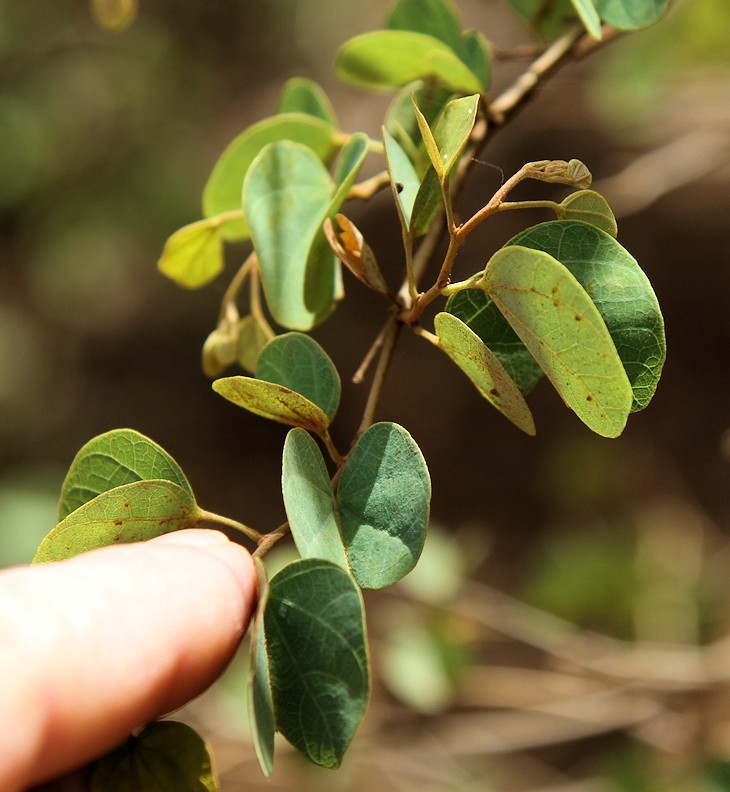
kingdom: Plantae
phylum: Tracheophyta
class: Magnoliopsida
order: Fabales
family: Fabaceae
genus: Bauhinia
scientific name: Bauhinia galpinii
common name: African plume
